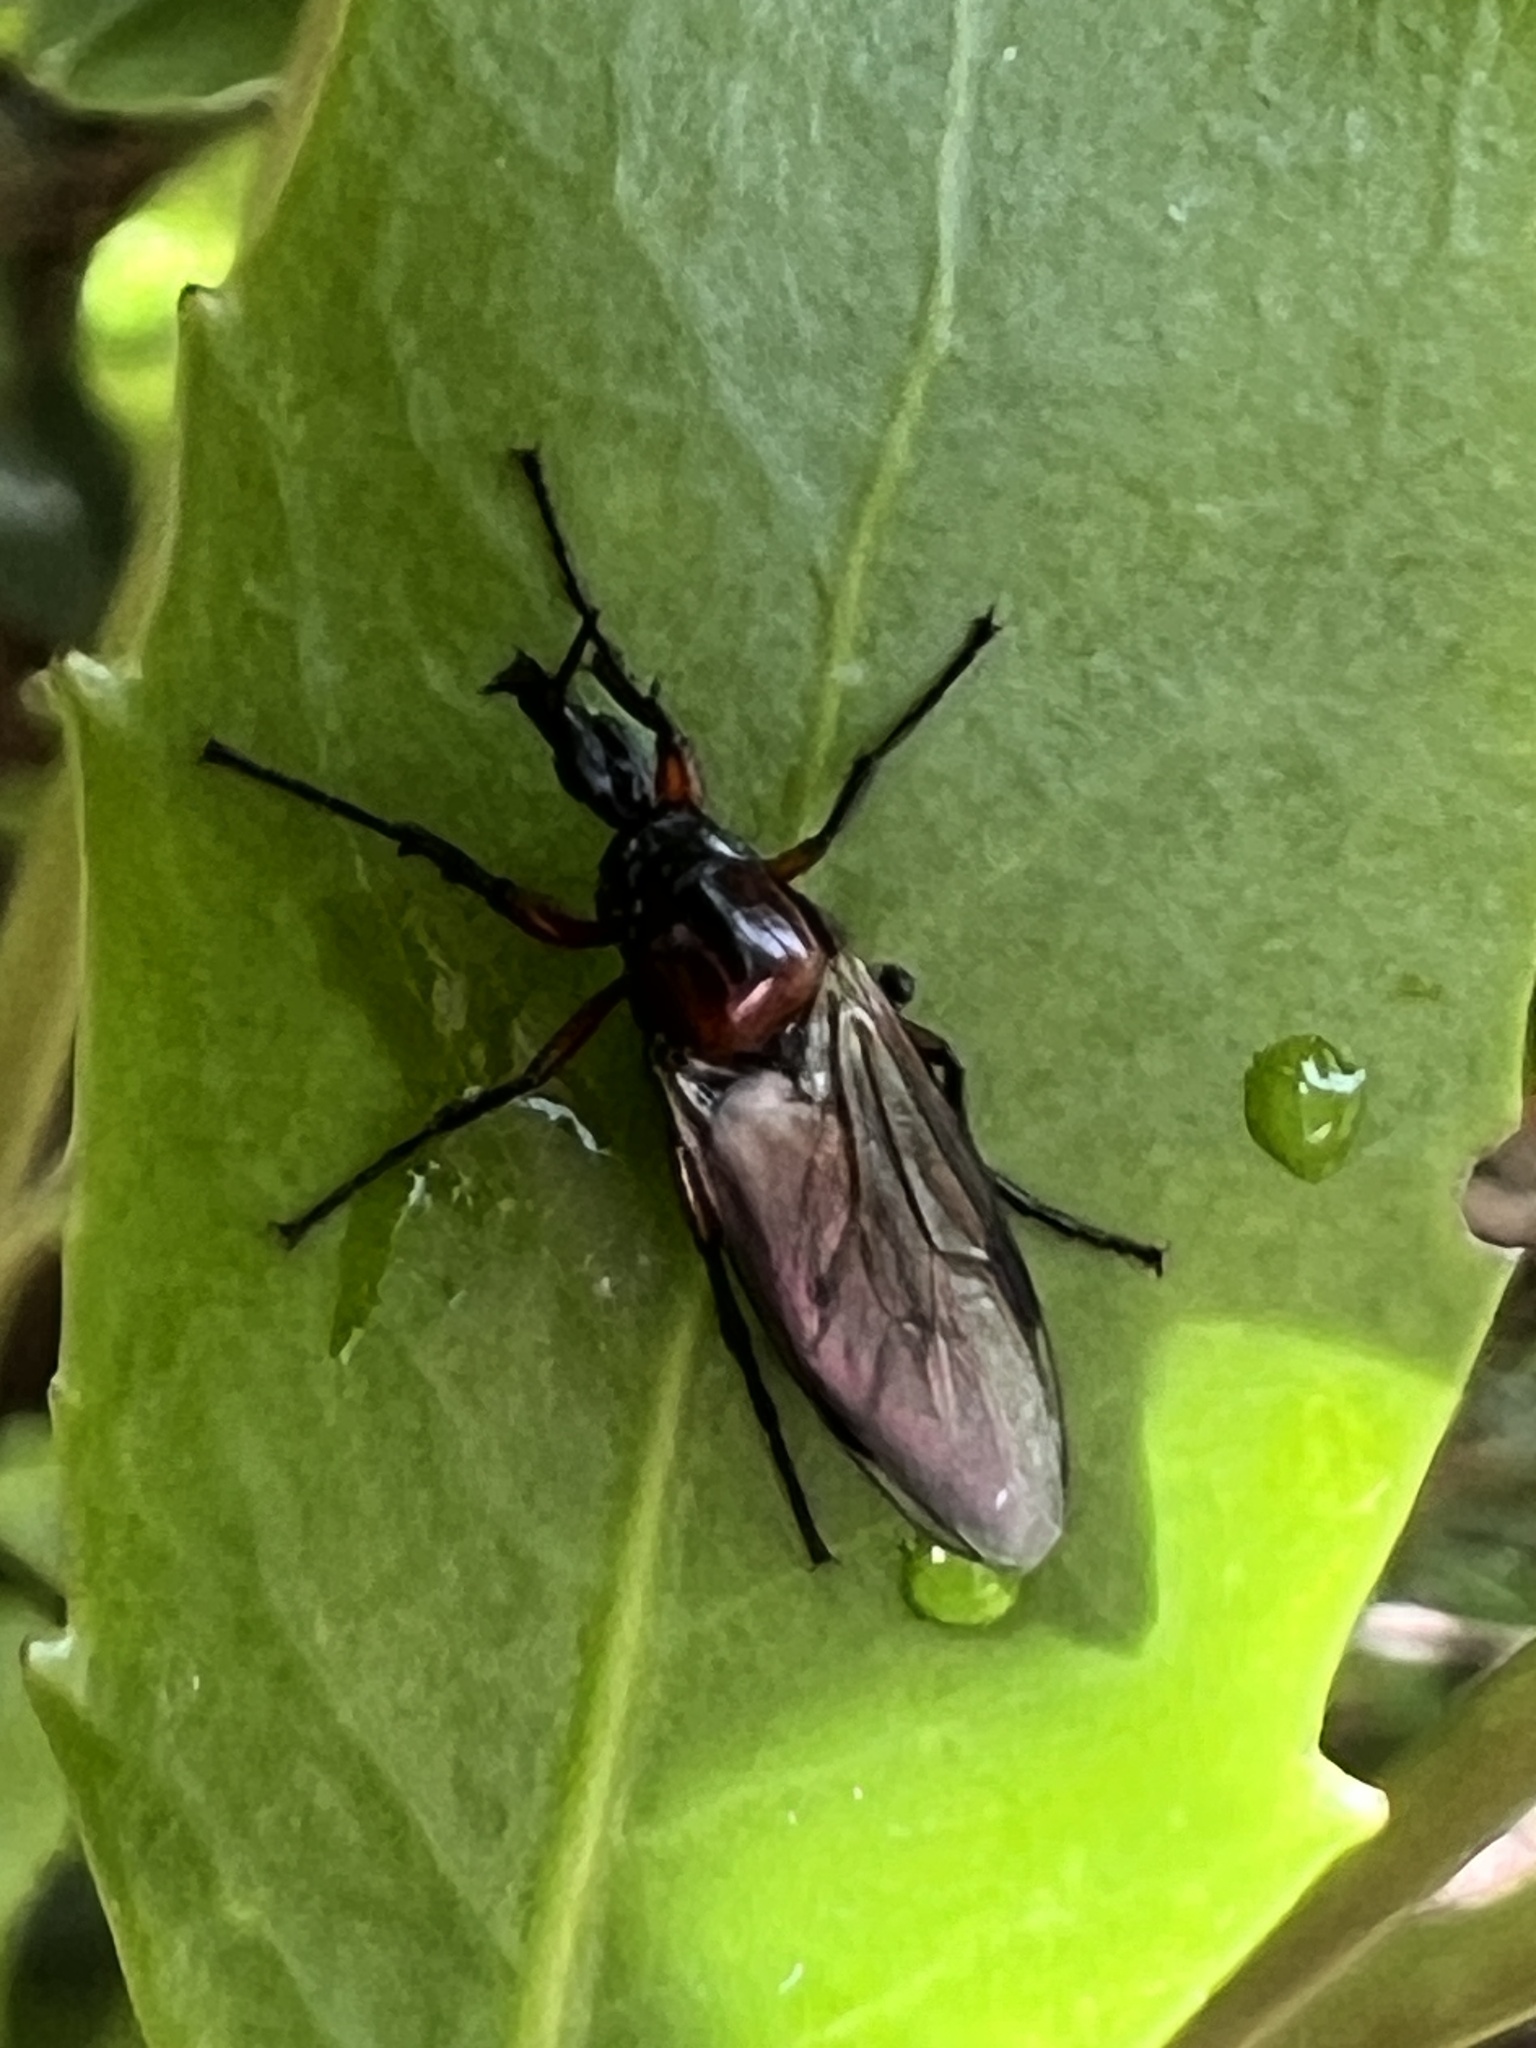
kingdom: Animalia
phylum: Arthropoda
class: Insecta
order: Diptera
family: Bibionidae
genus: Dilophus
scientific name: Dilophus nigrostigma
